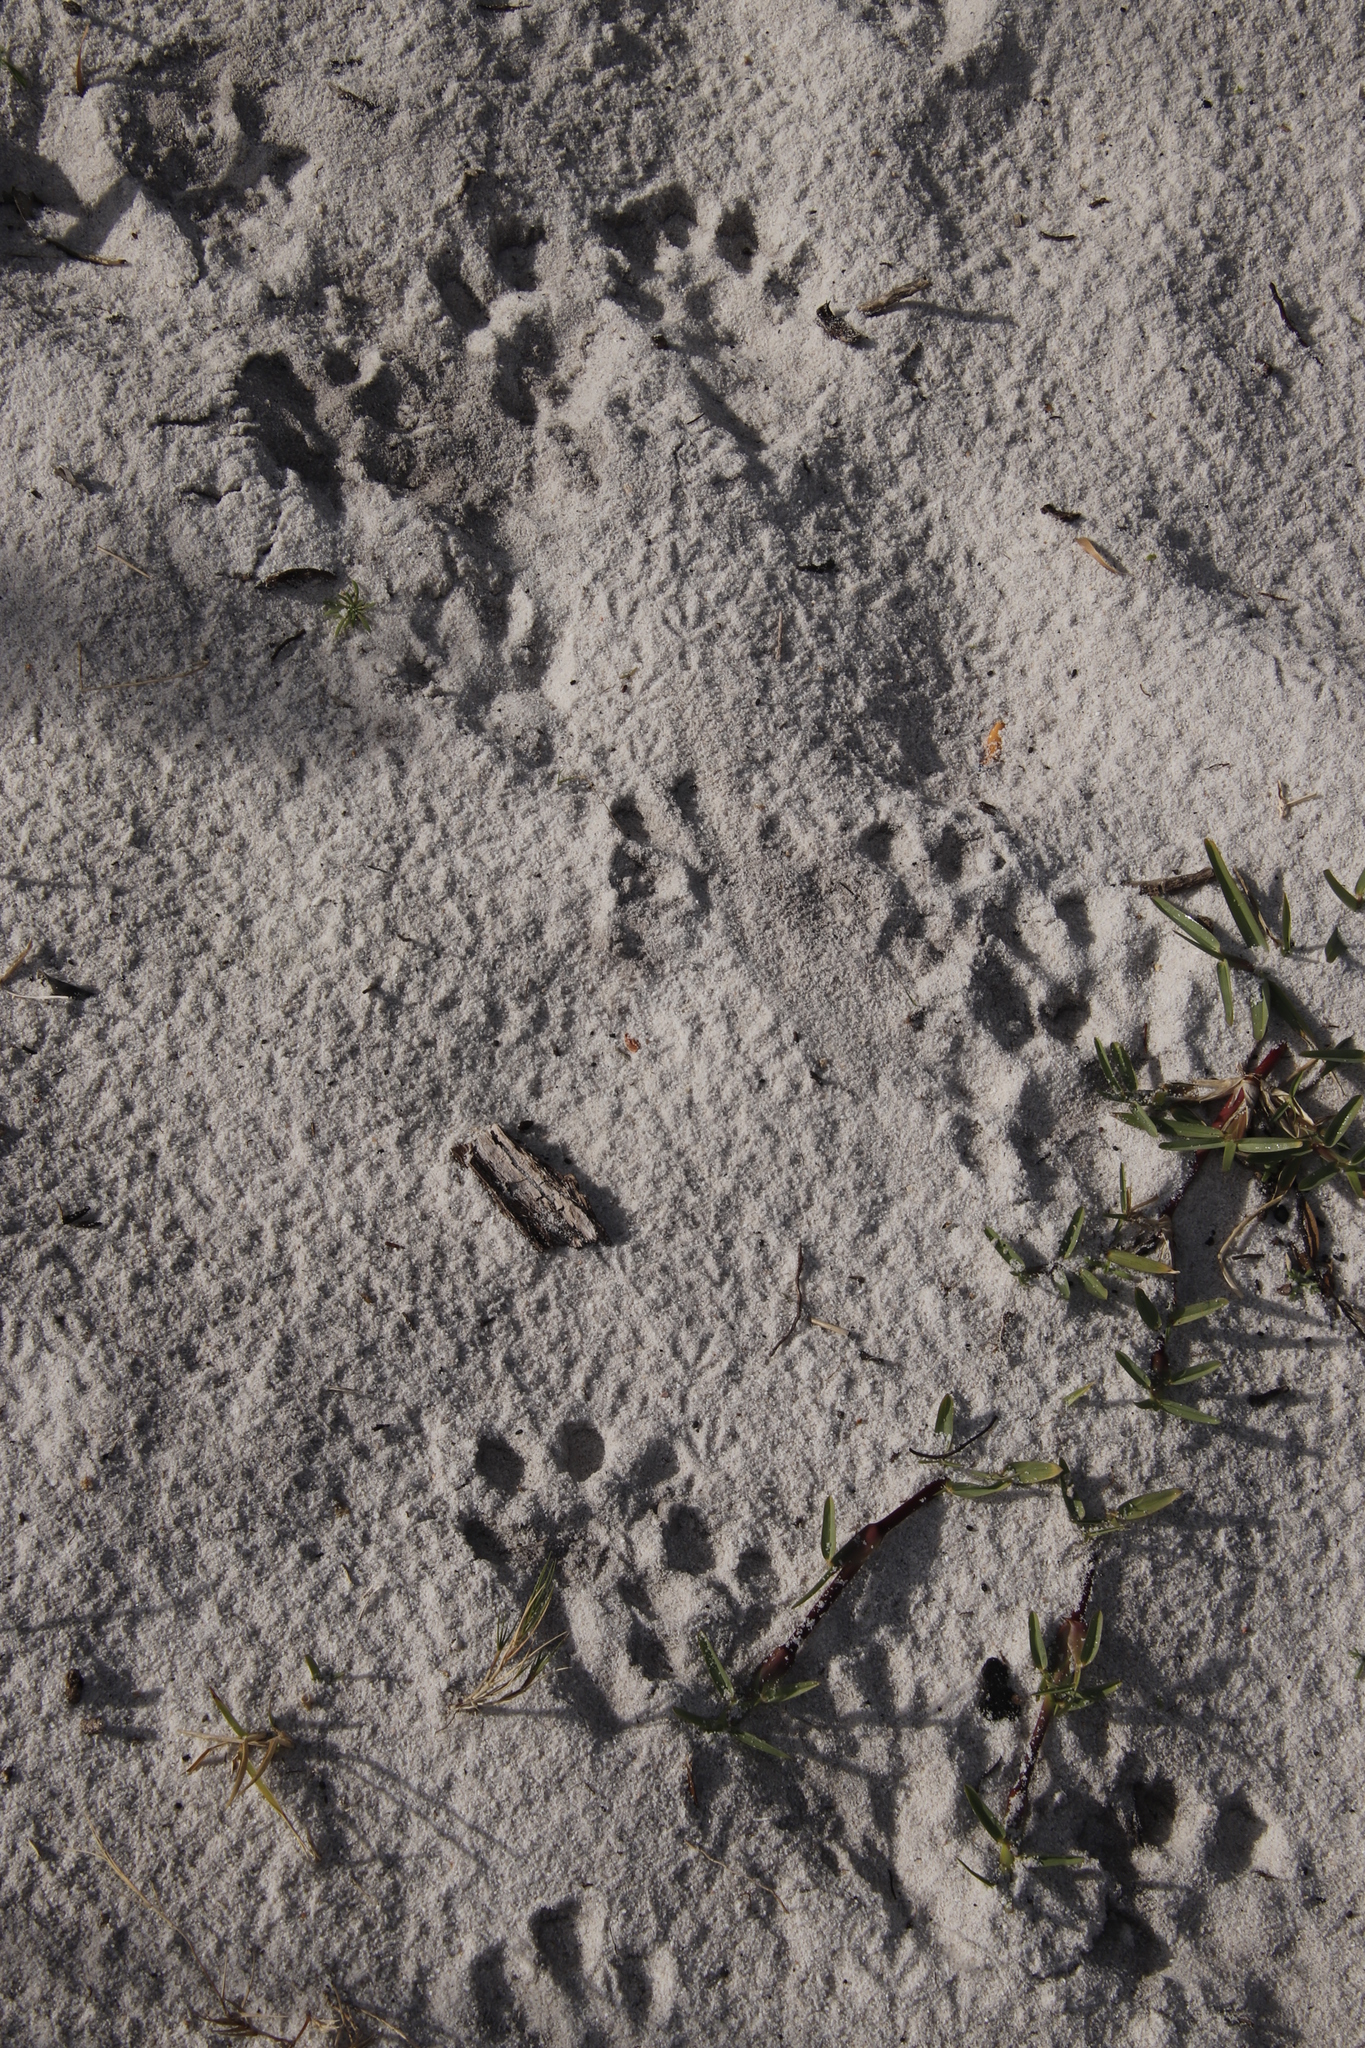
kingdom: Animalia
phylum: Chordata
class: Mammalia
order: Carnivora
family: Mustelidae
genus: Aonyx
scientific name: Aonyx capensis
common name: African clawless otter
